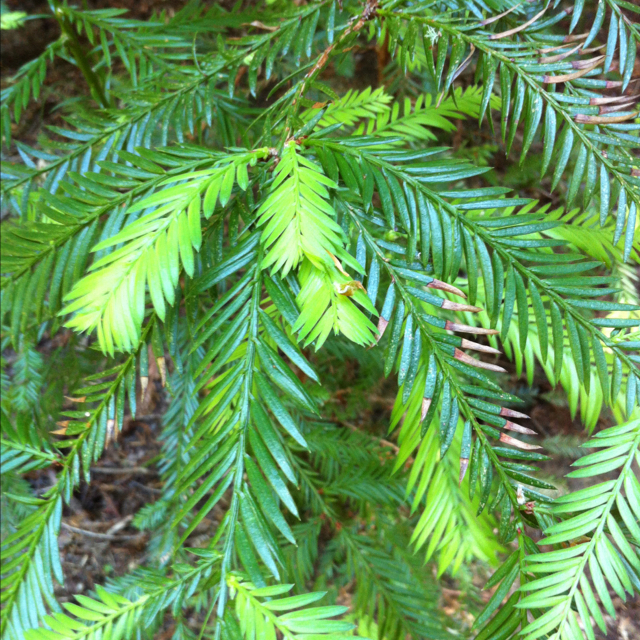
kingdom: Plantae
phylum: Tracheophyta
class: Pinopsida
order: Pinales
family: Cupressaceae
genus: Sequoia
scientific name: Sequoia sempervirens
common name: Coast redwood
